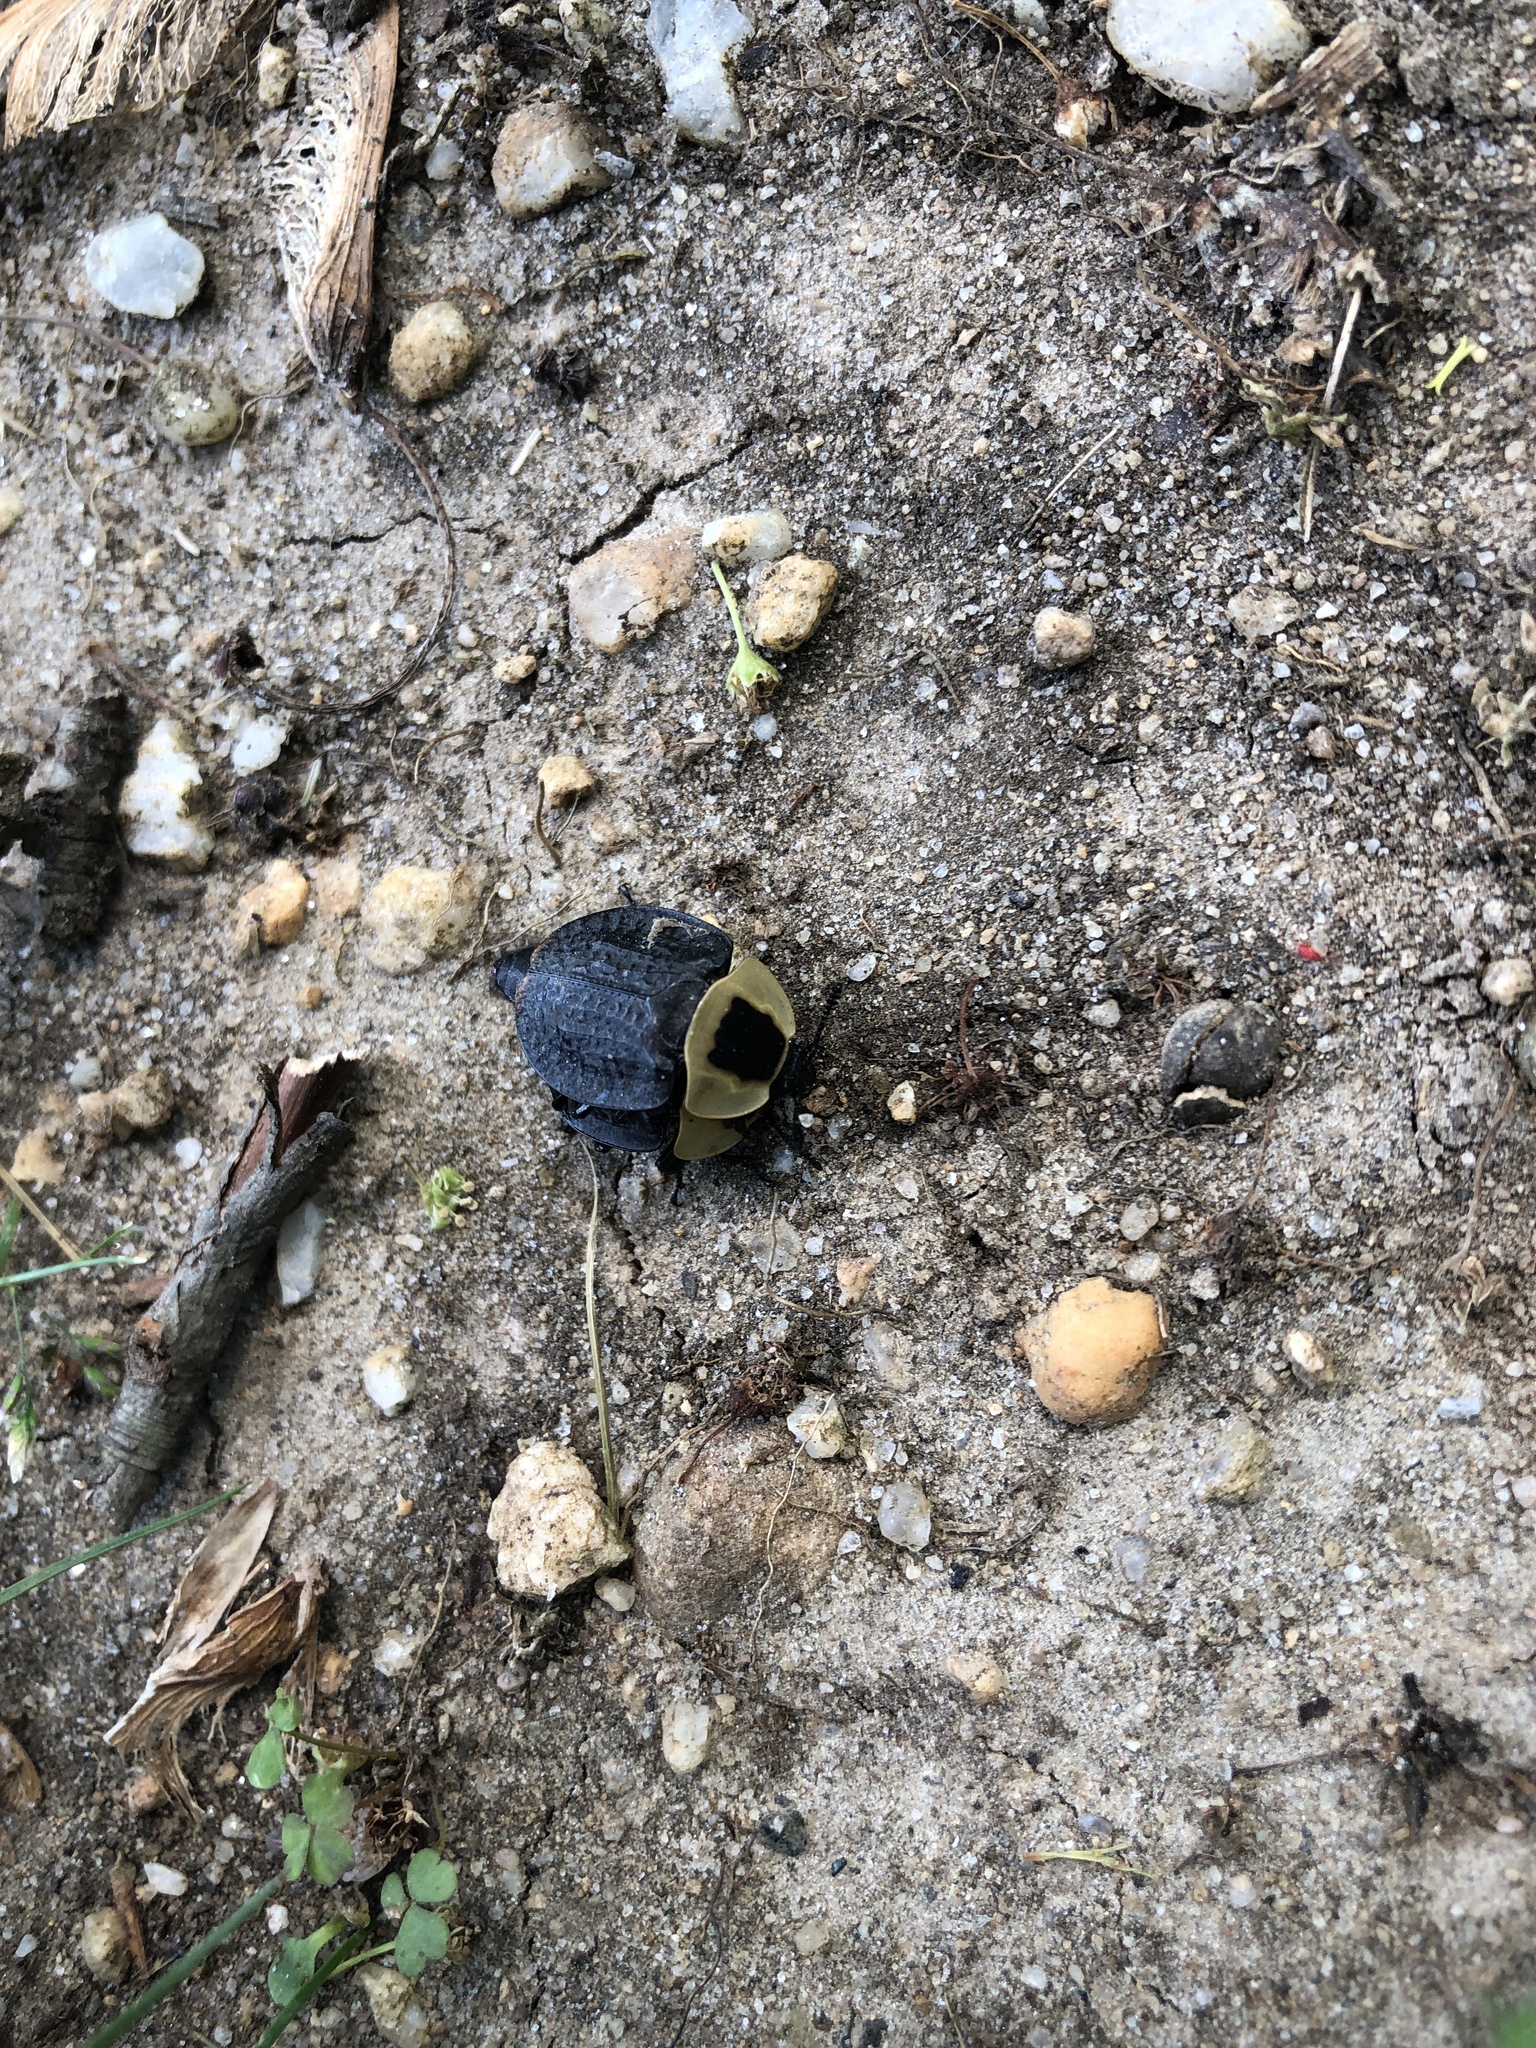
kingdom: Animalia
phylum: Arthropoda
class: Insecta
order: Coleoptera
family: Staphylinidae
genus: Necrophila
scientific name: Necrophila americana
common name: American carrion beetle
